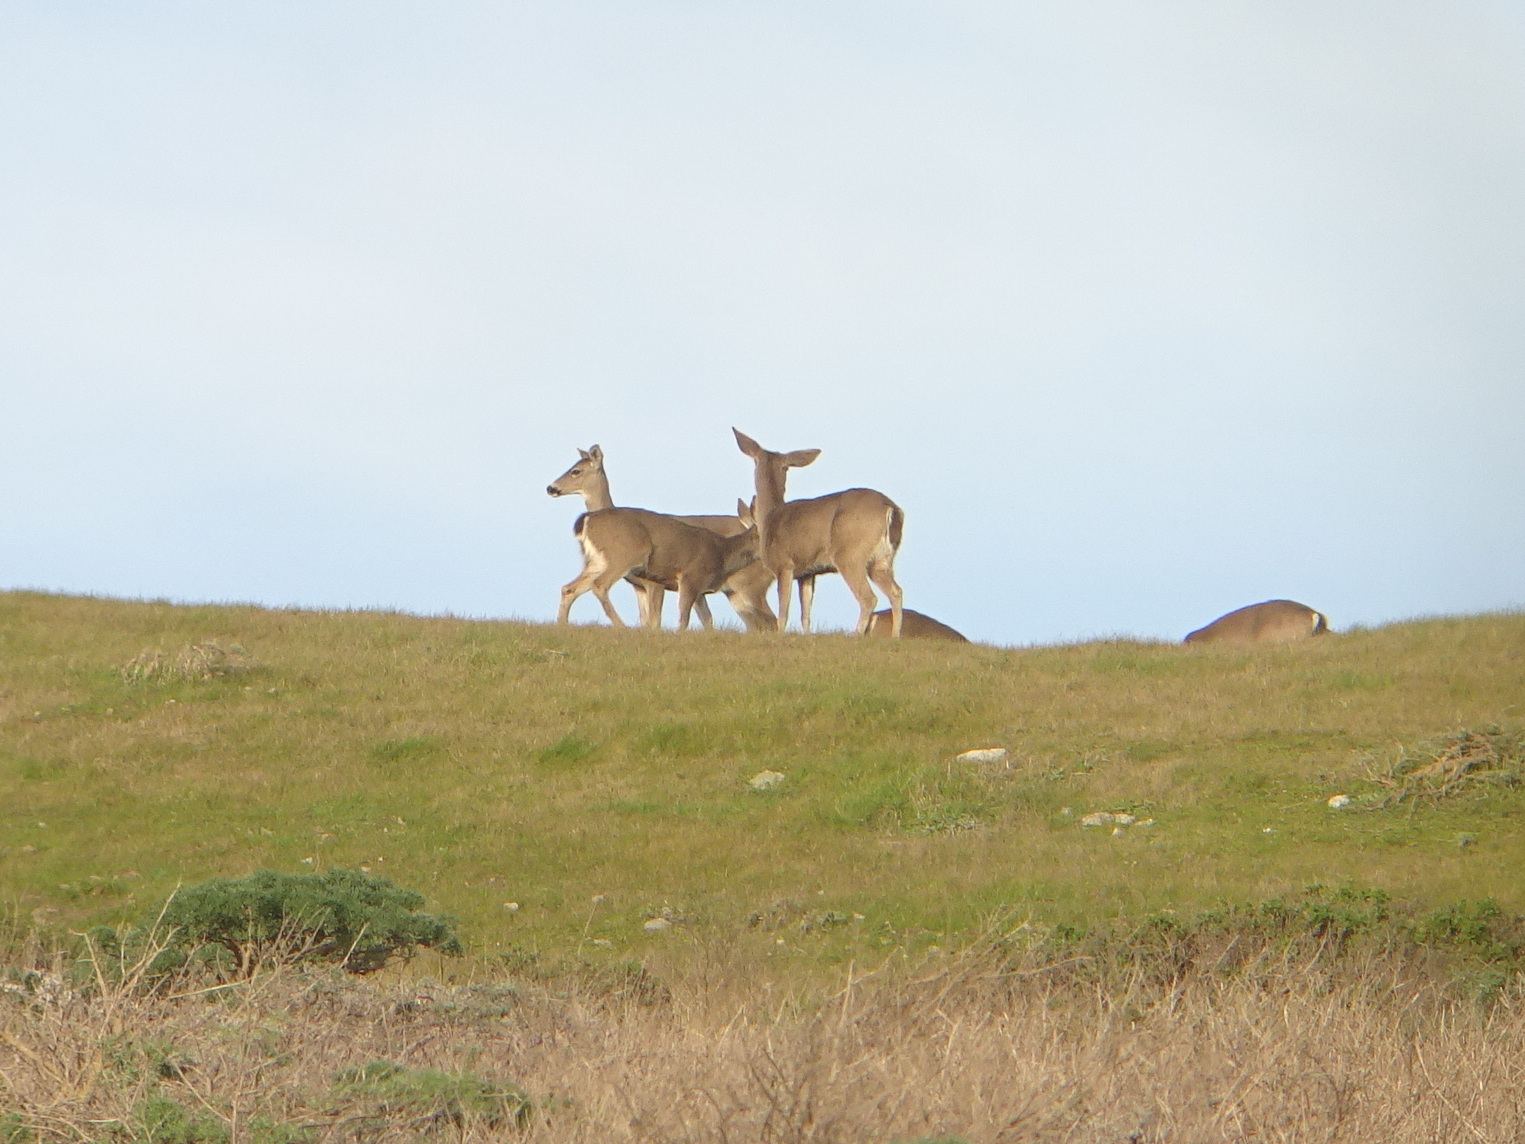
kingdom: Animalia
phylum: Chordata
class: Mammalia
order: Artiodactyla
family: Cervidae
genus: Odocoileus
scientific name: Odocoileus hemionus
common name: Mule deer
